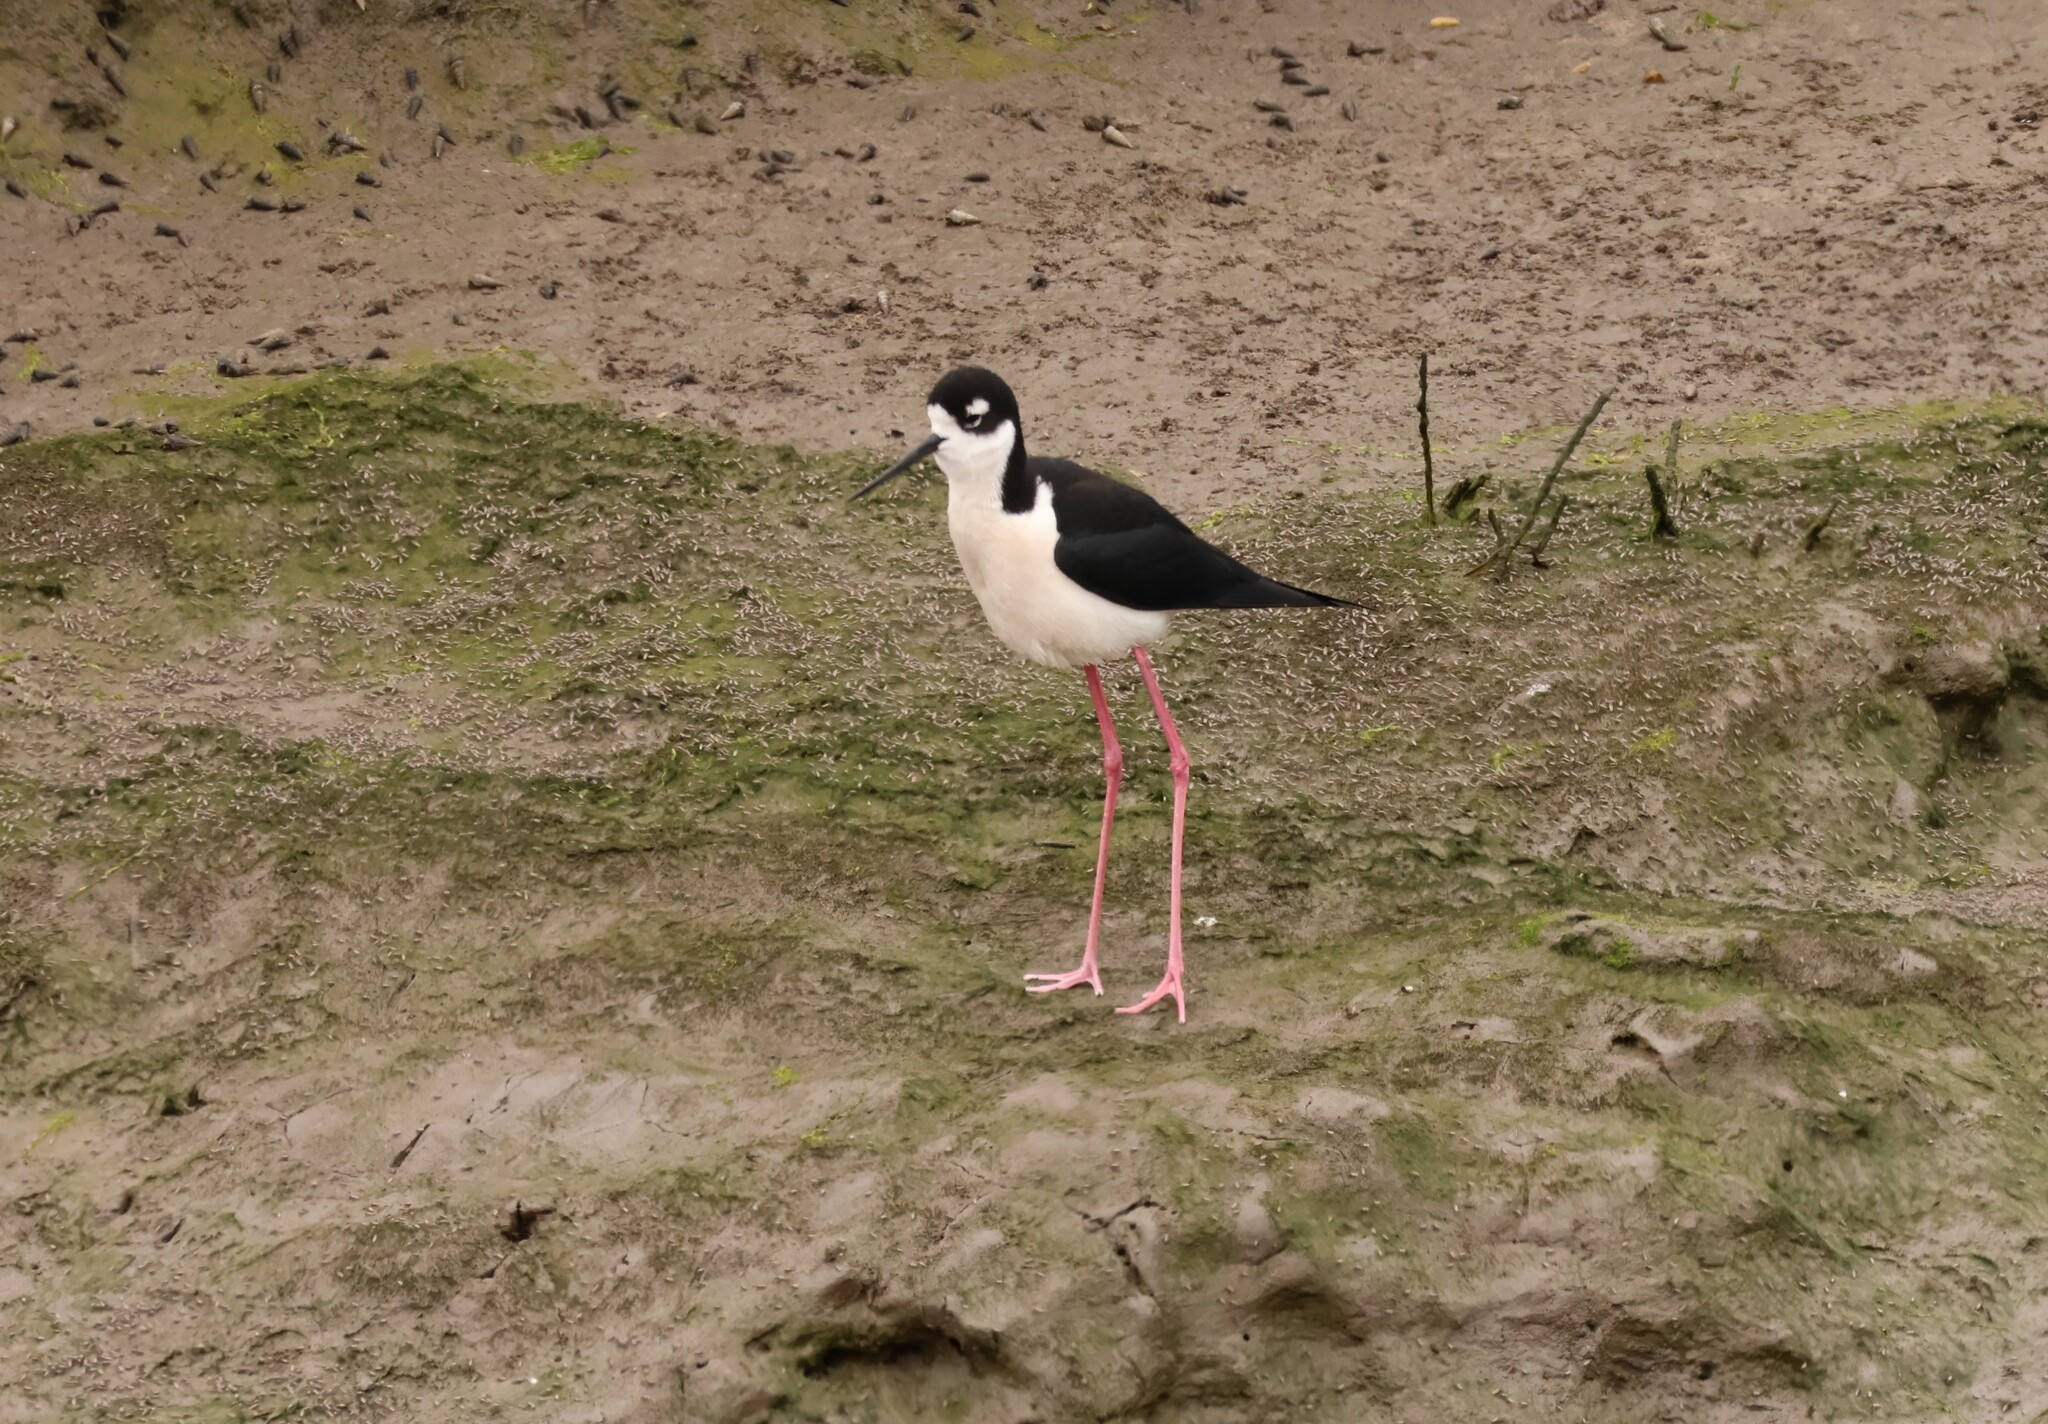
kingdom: Animalia
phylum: Chordata
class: Aves
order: Charadriiformes
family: Recurvirostridae
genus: Himantopus
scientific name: Himantopus mexicanus
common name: Black-necked stilt
